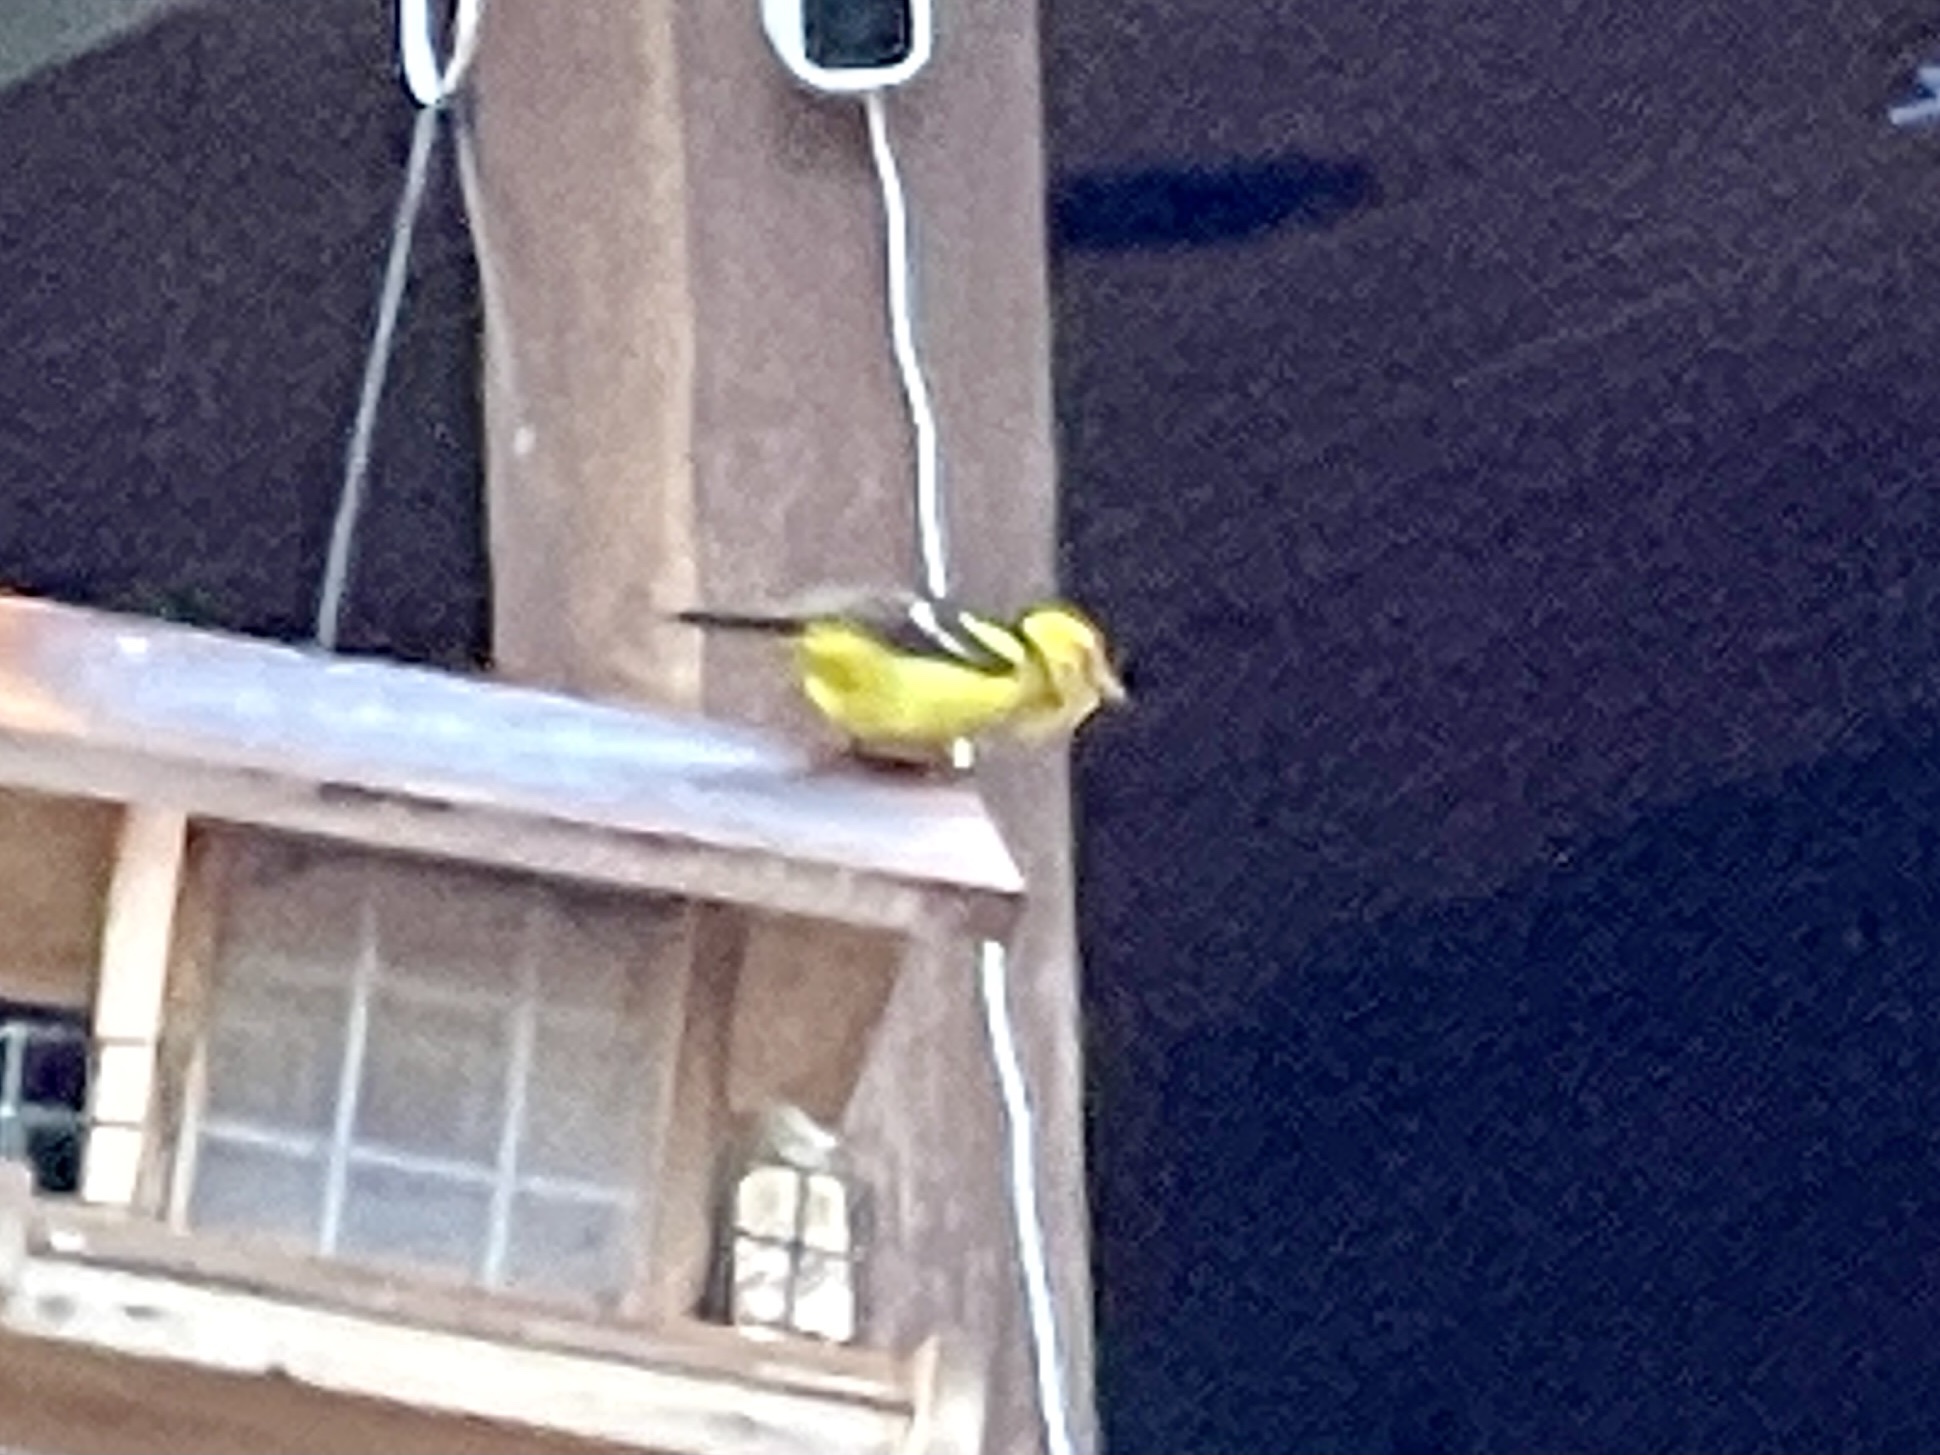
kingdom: Animalia
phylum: Chordata
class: Aves
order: Passeriformes
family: Cardinalidae
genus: Piranga
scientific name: Piranga ludoviciana
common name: Western tanager
